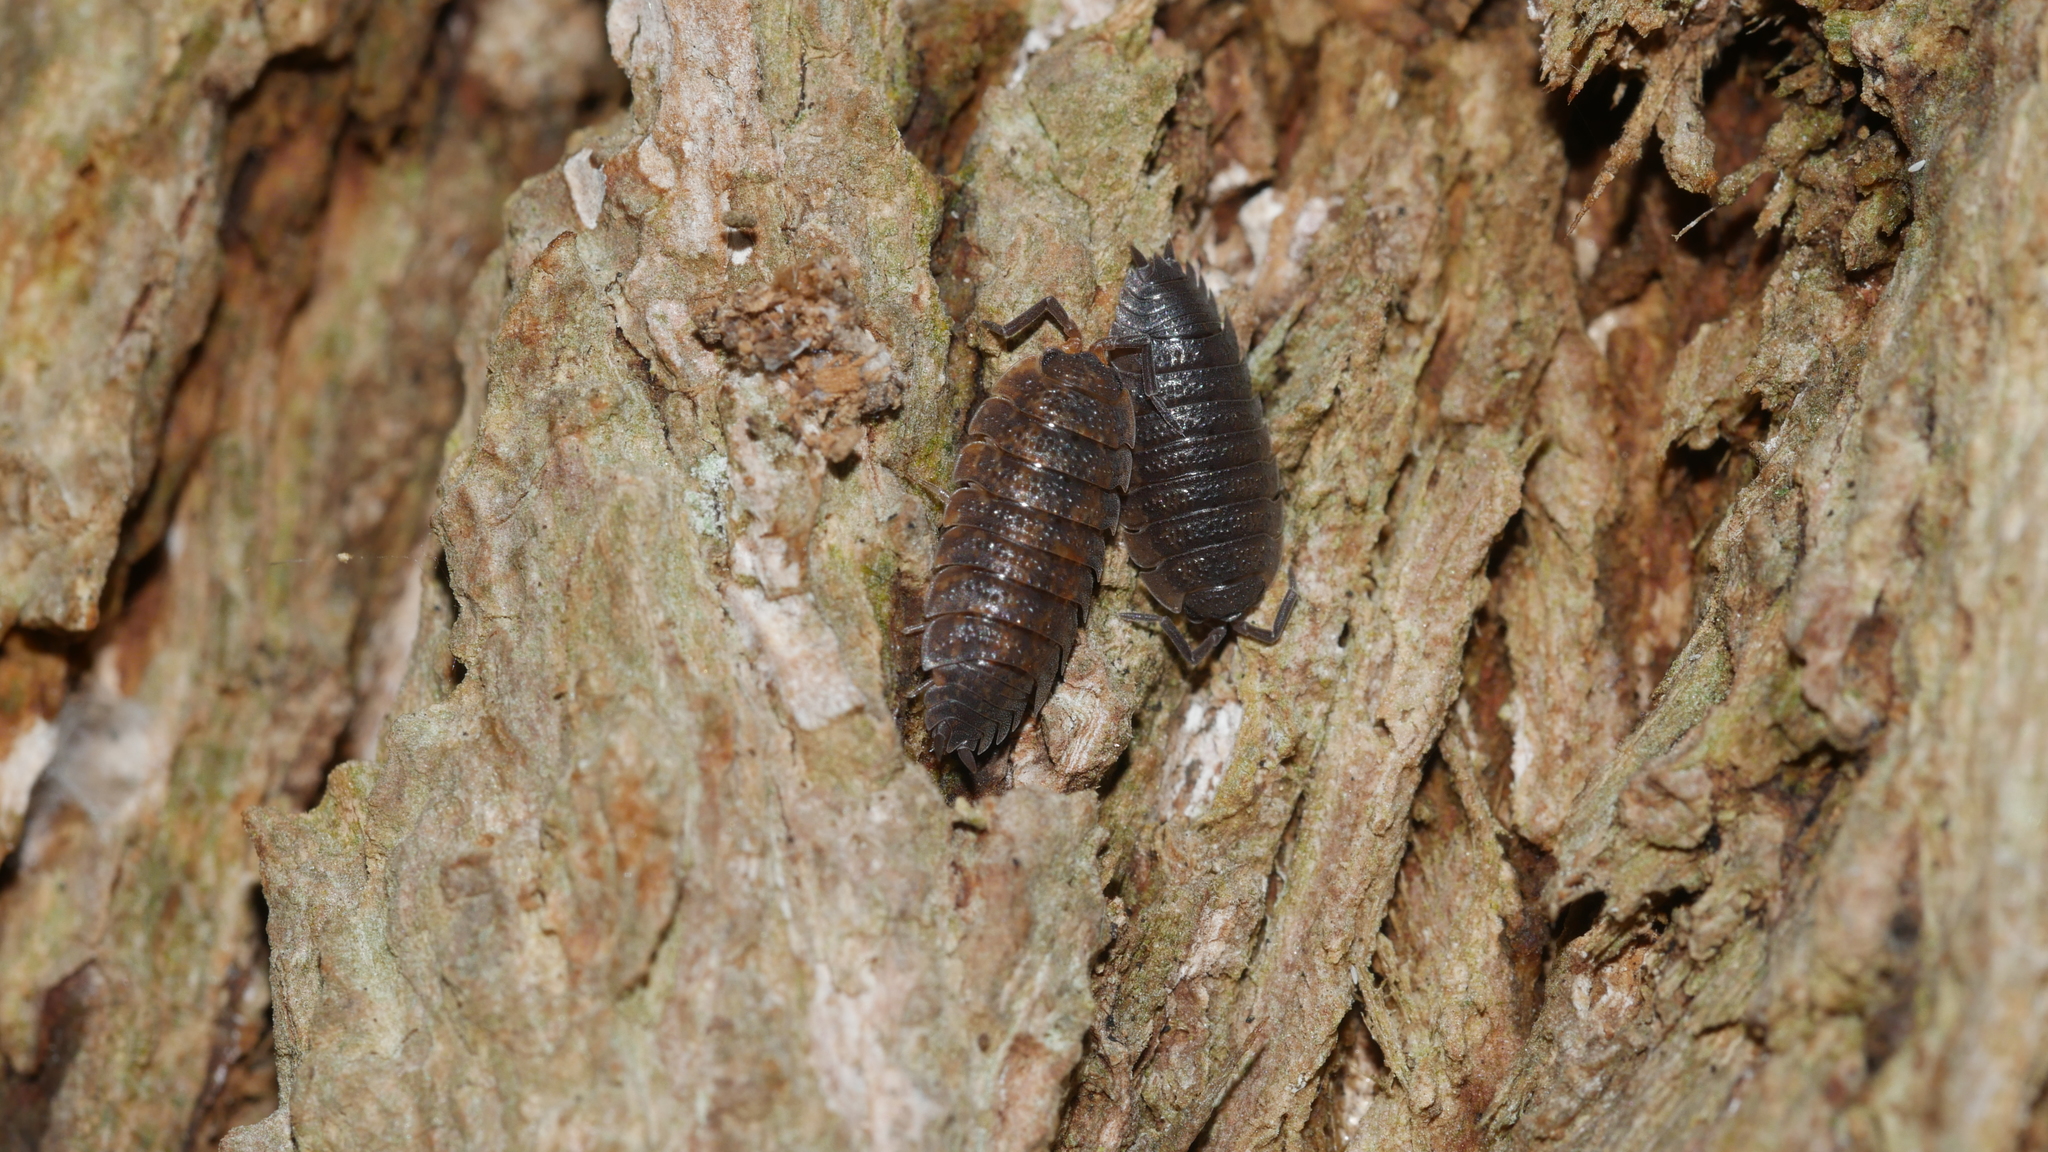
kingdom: Animalia
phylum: Arthropoda
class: Malacostraca
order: Isopoda
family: Porcellionidae
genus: Porcellio
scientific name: Porcellio scaber
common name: Common rough woodlouse
